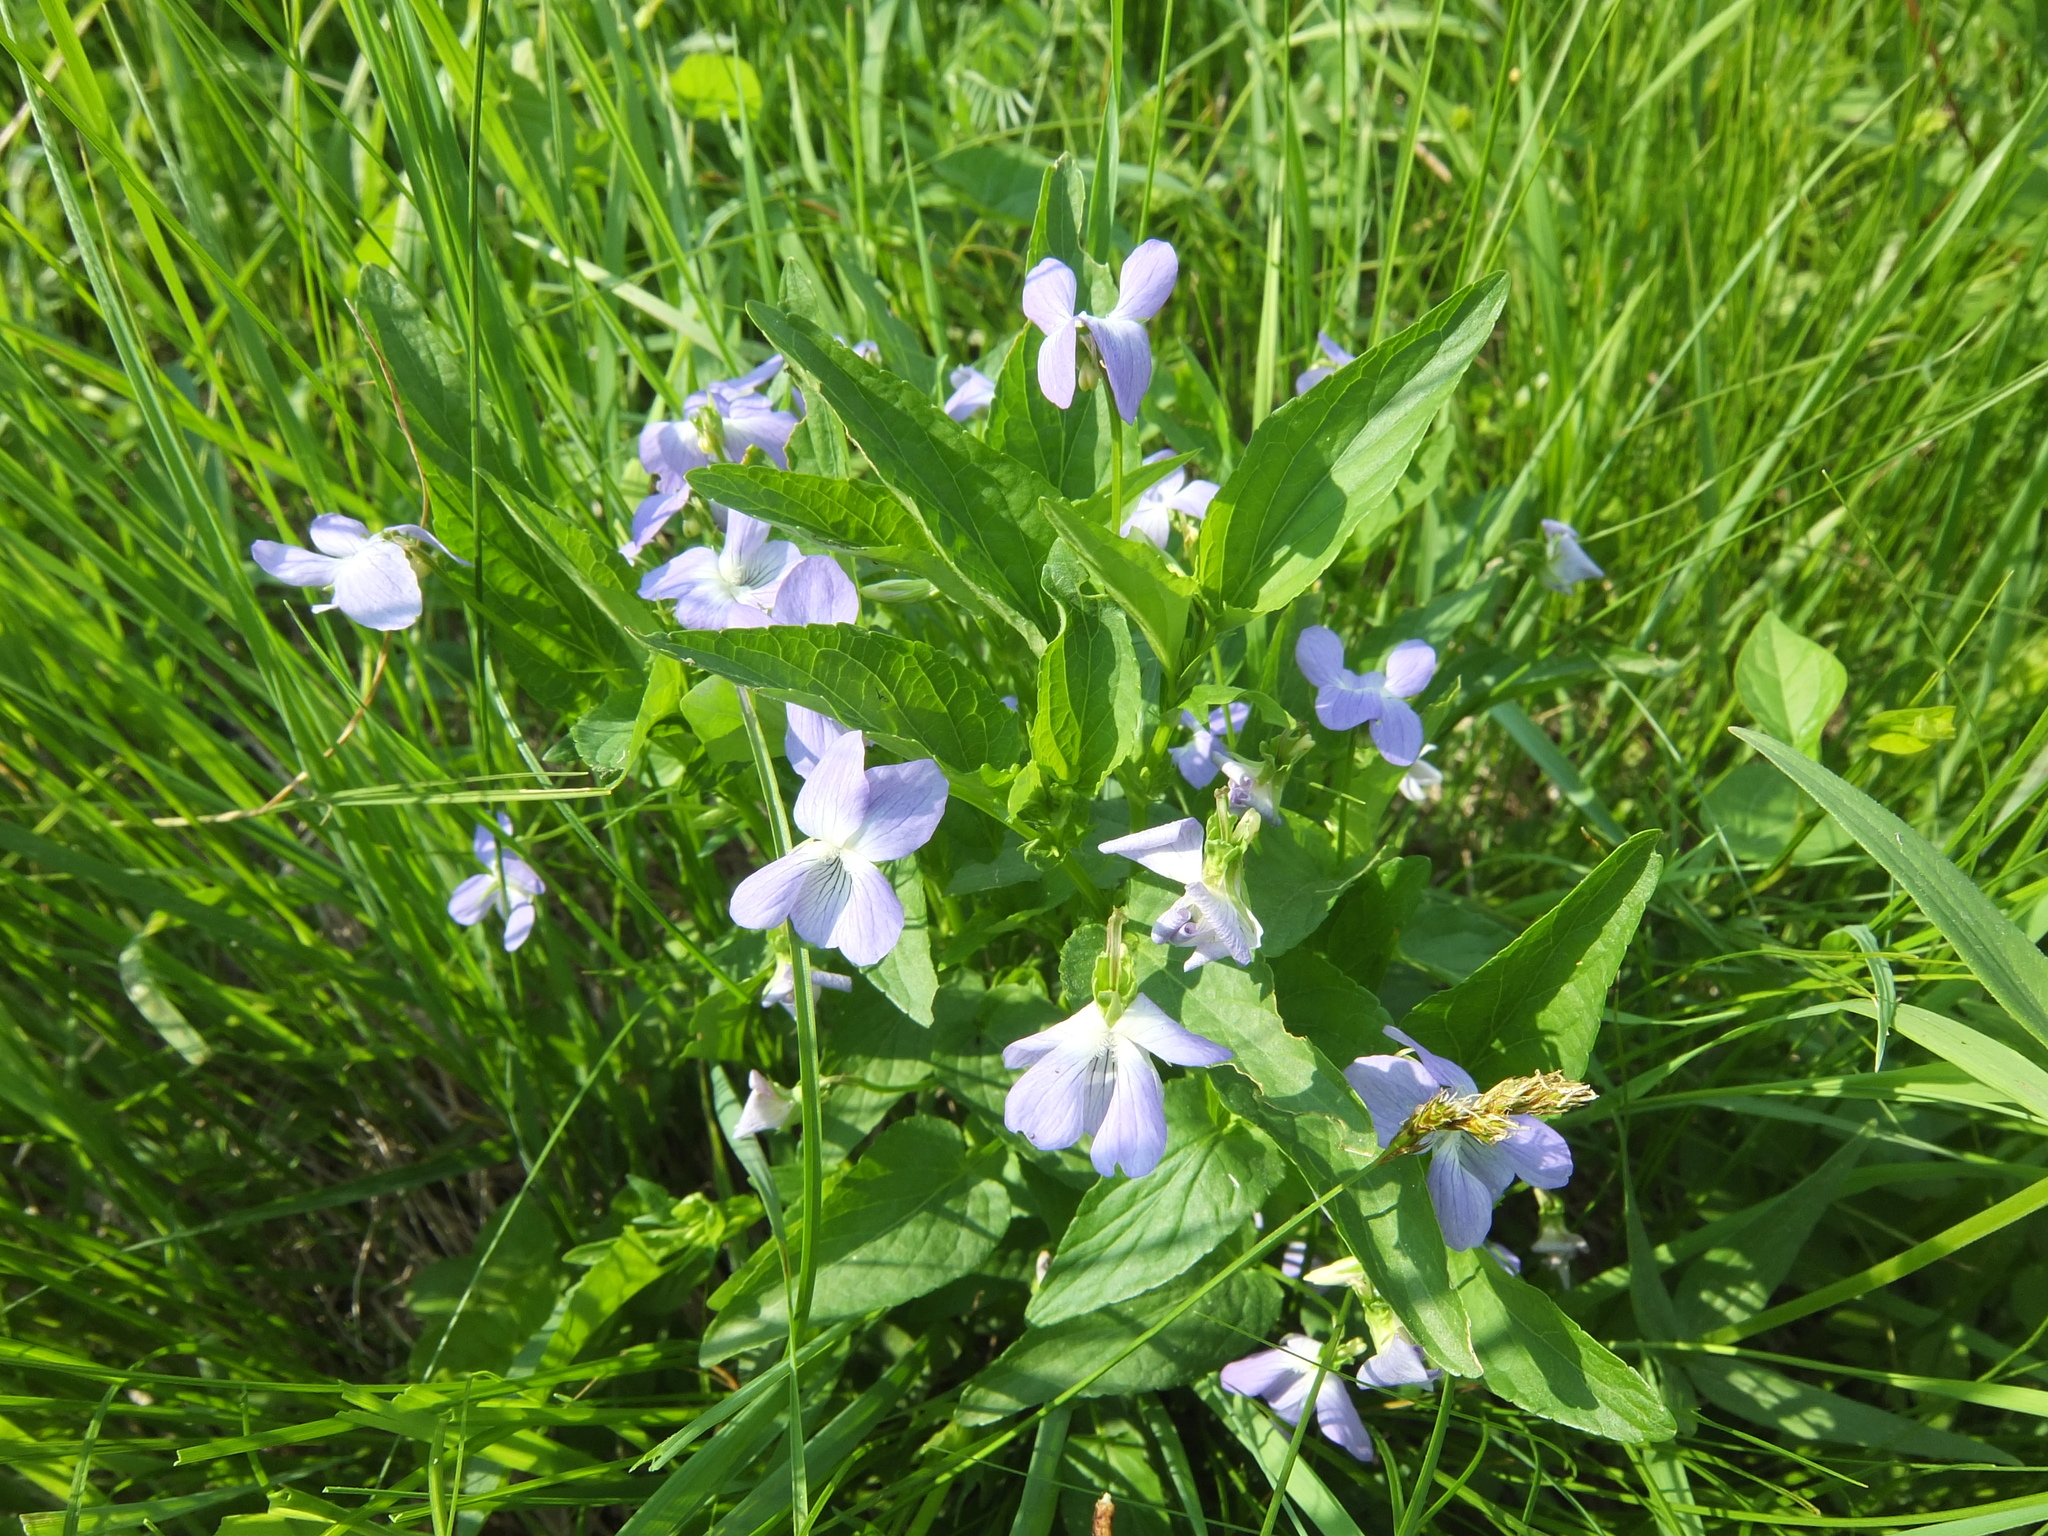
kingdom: Plantae
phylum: Tracheophyta
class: Magnoliopsida
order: Malpighiales
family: Violaceae
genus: Viola
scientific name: Viola elatior
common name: Tall violet
